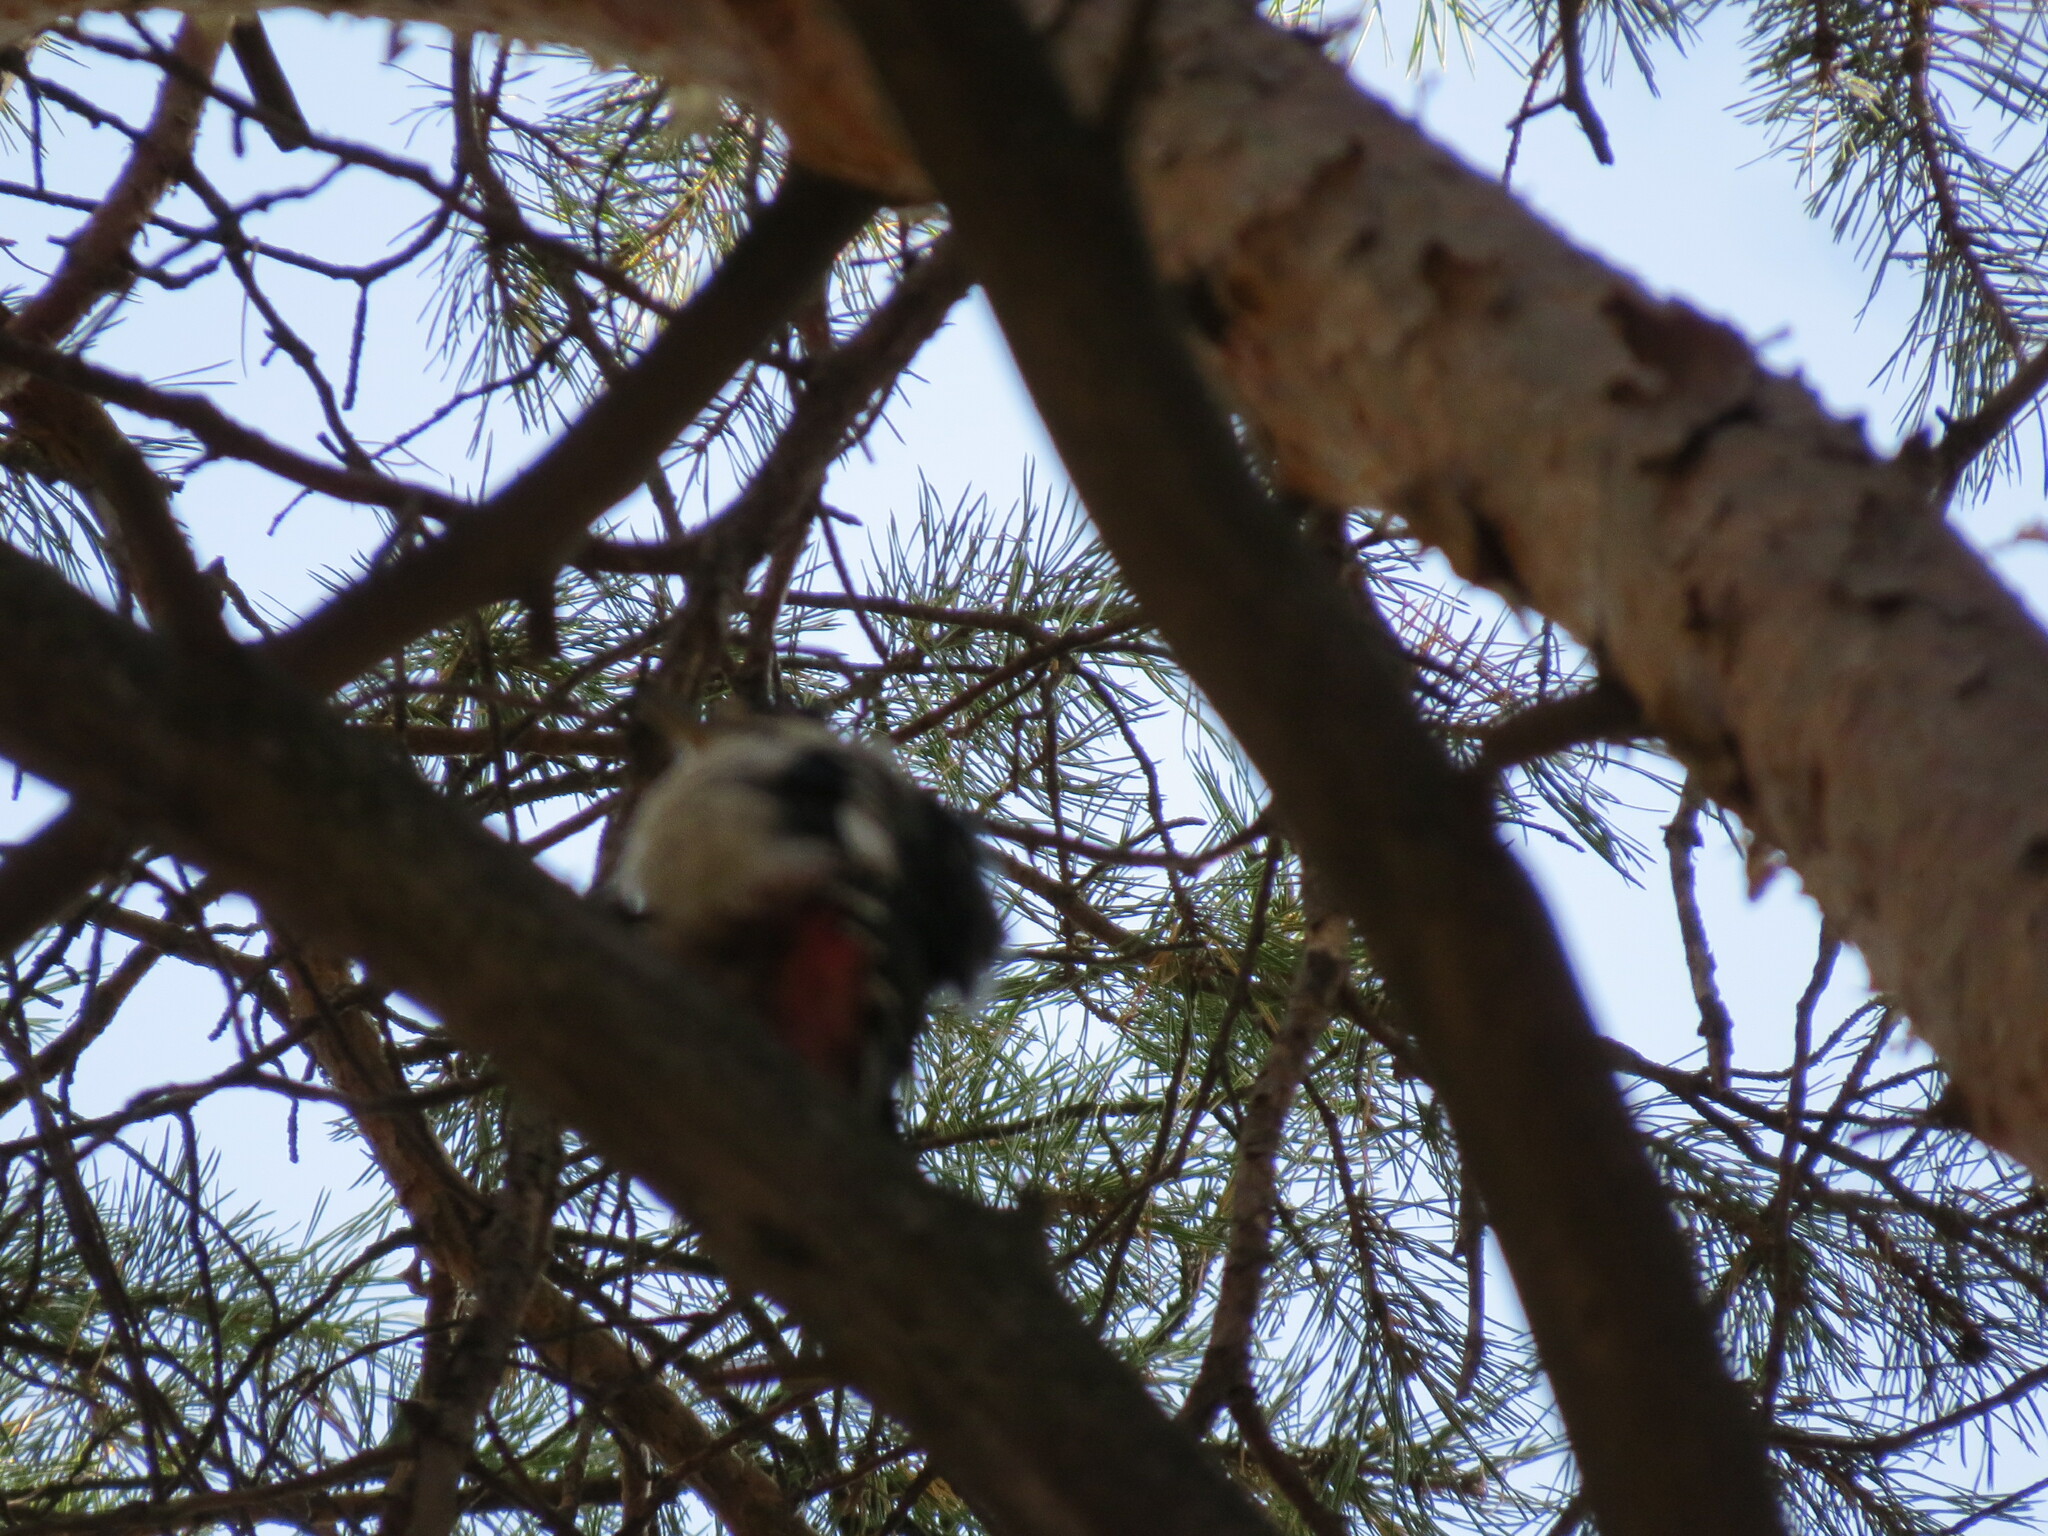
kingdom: Animalia
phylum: Chordata
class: Aves
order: Piciformes
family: Picidae
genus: Dendrocopos
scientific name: Dendrocopos major
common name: Great spotted woodpecker
